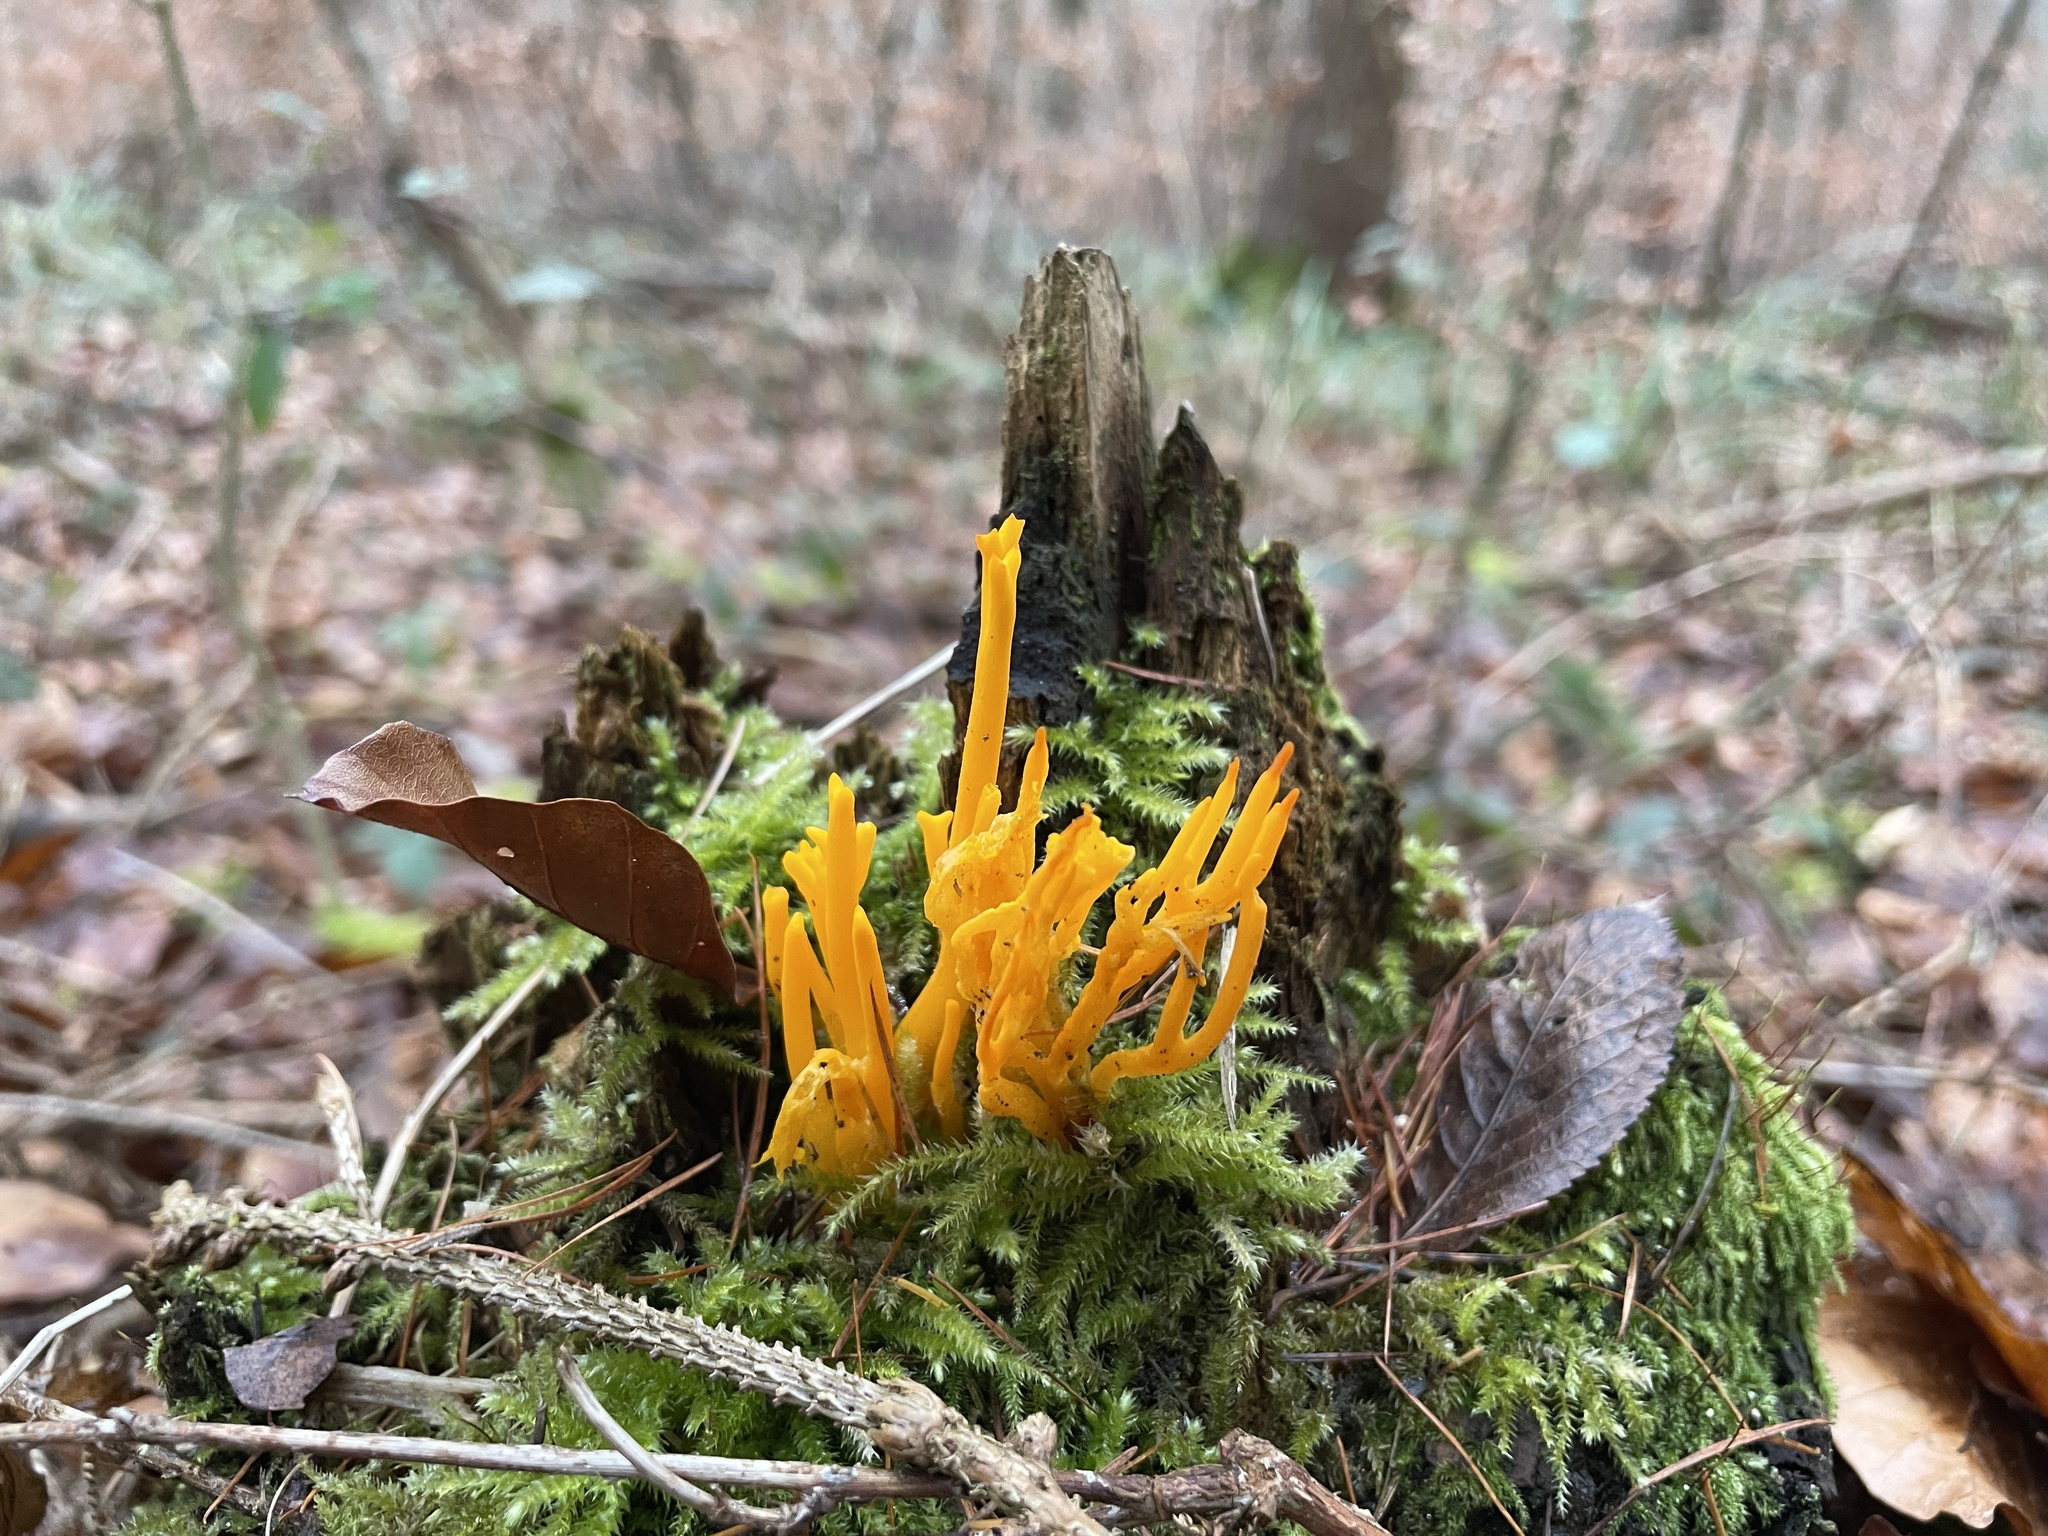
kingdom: Fungi
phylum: Basidiomycota
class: Dacrymycetes
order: Dacrymycetales
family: Dacrymycetaceae
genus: Calocera
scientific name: Calocera viscosa
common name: Yellow stagshorn
